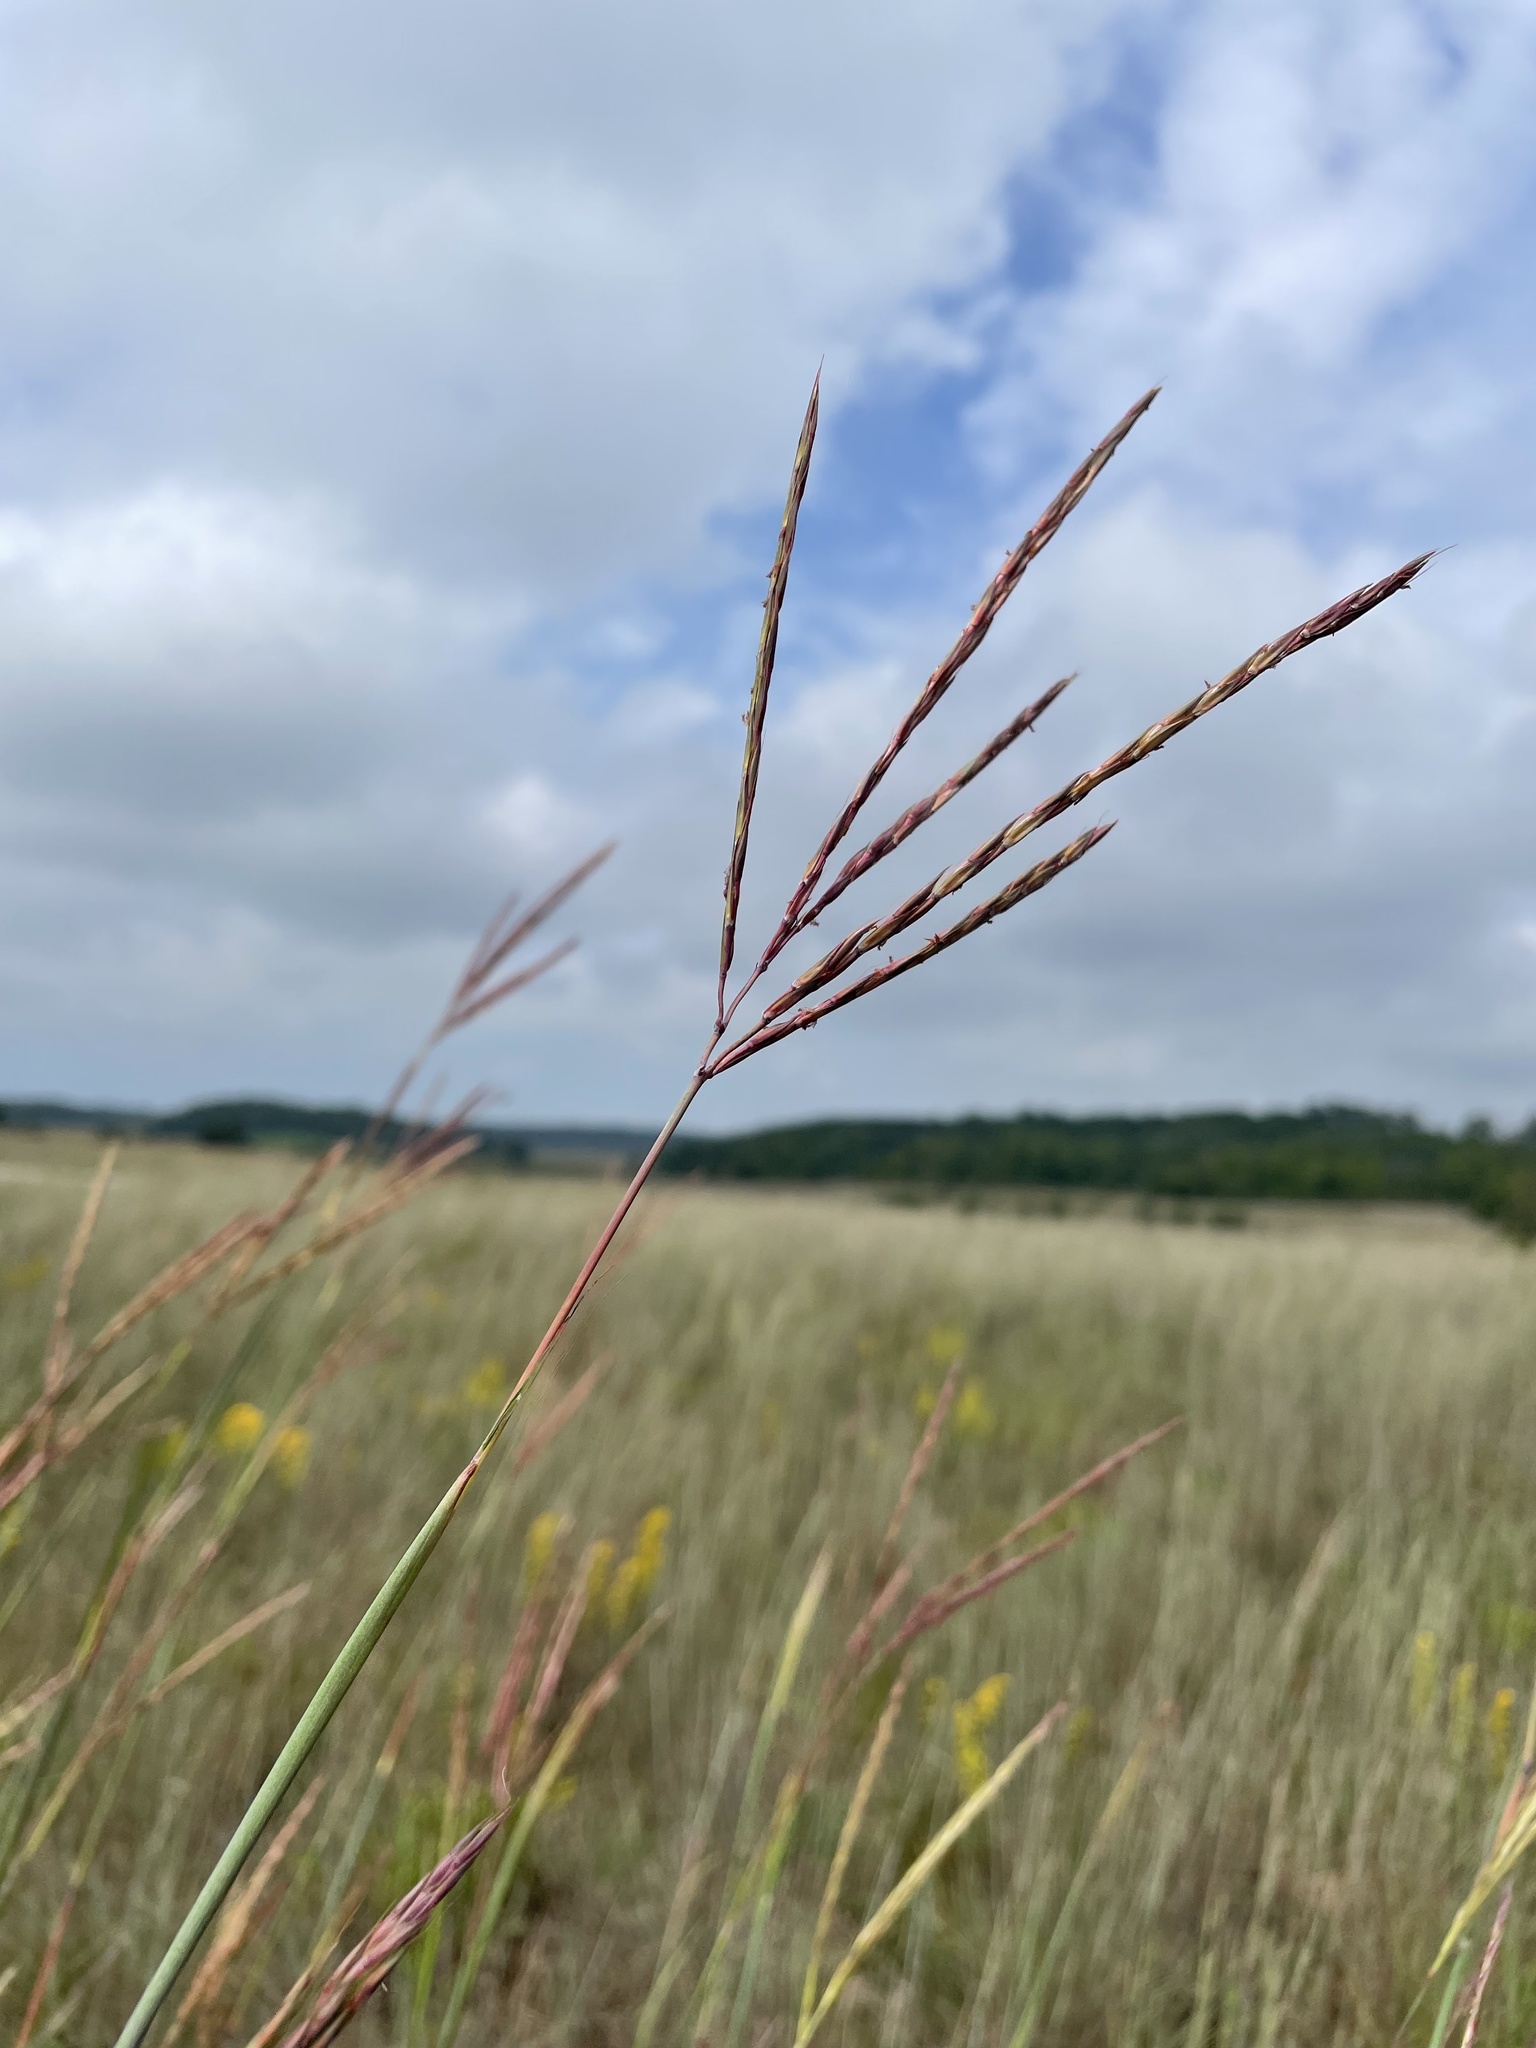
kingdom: Plantae
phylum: Tracheophyta
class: Liliopsida
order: Poales
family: Poaceae
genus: Andropogon
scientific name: Andropogon gerardi
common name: Big bluestem
